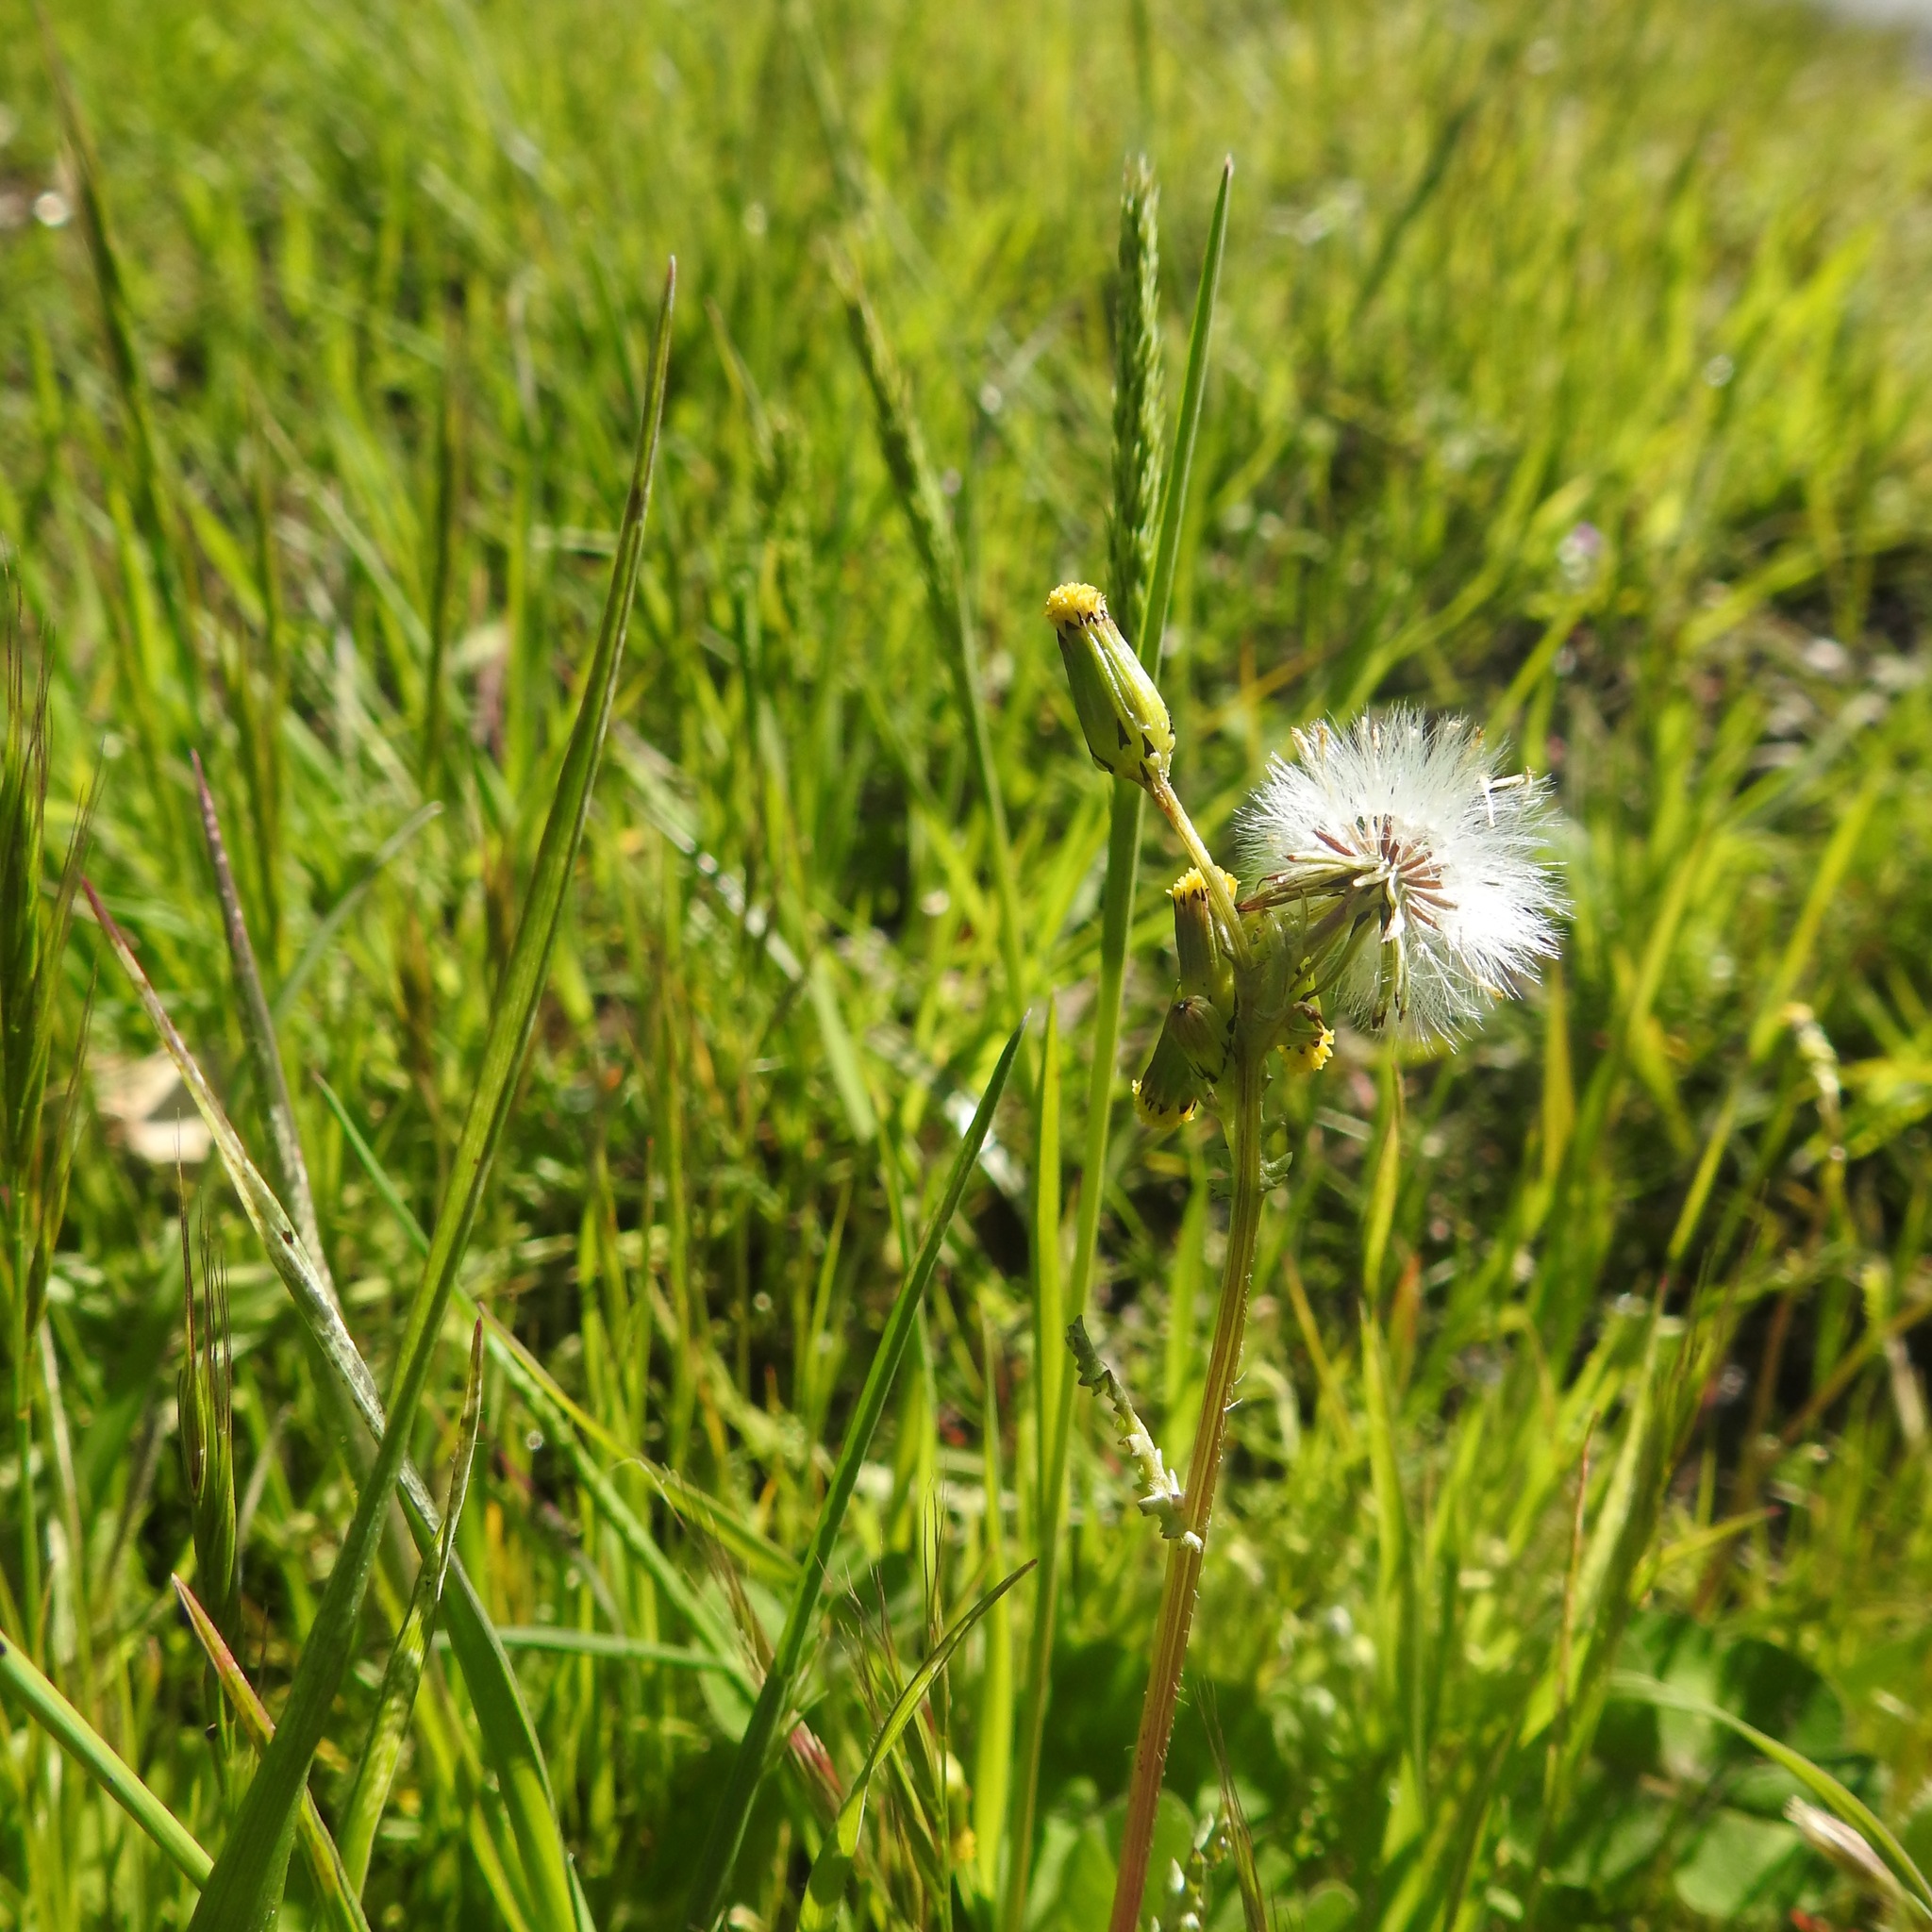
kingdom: Plantae
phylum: Tracheophyta
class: Magnoliopsida
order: Asterales
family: Asteraceae
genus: Senecio
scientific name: Senecio vulgaris
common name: Old-man-in-the-spring
